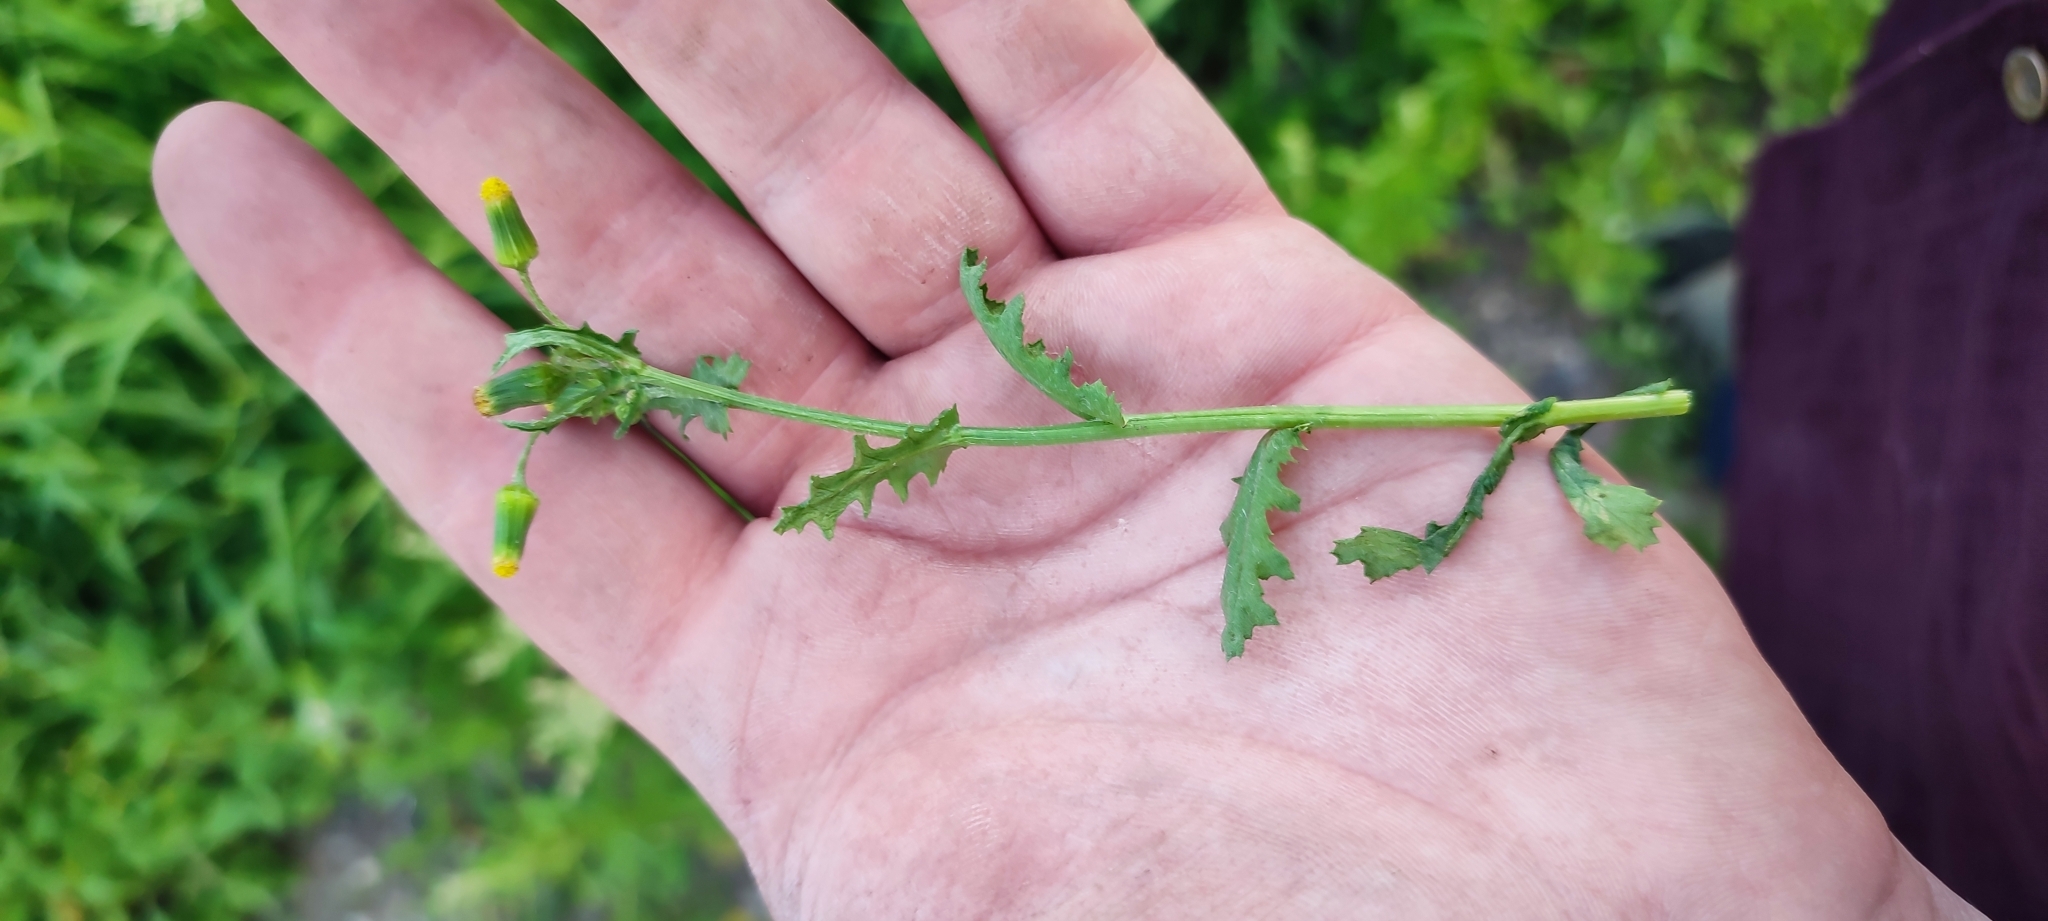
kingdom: Plantae
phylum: Tracheophyta
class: Magnoliopsida
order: Asterales
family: Asteraceae
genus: Senecio
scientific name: Senecio vulgaris
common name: Old-man-in-the-spring
